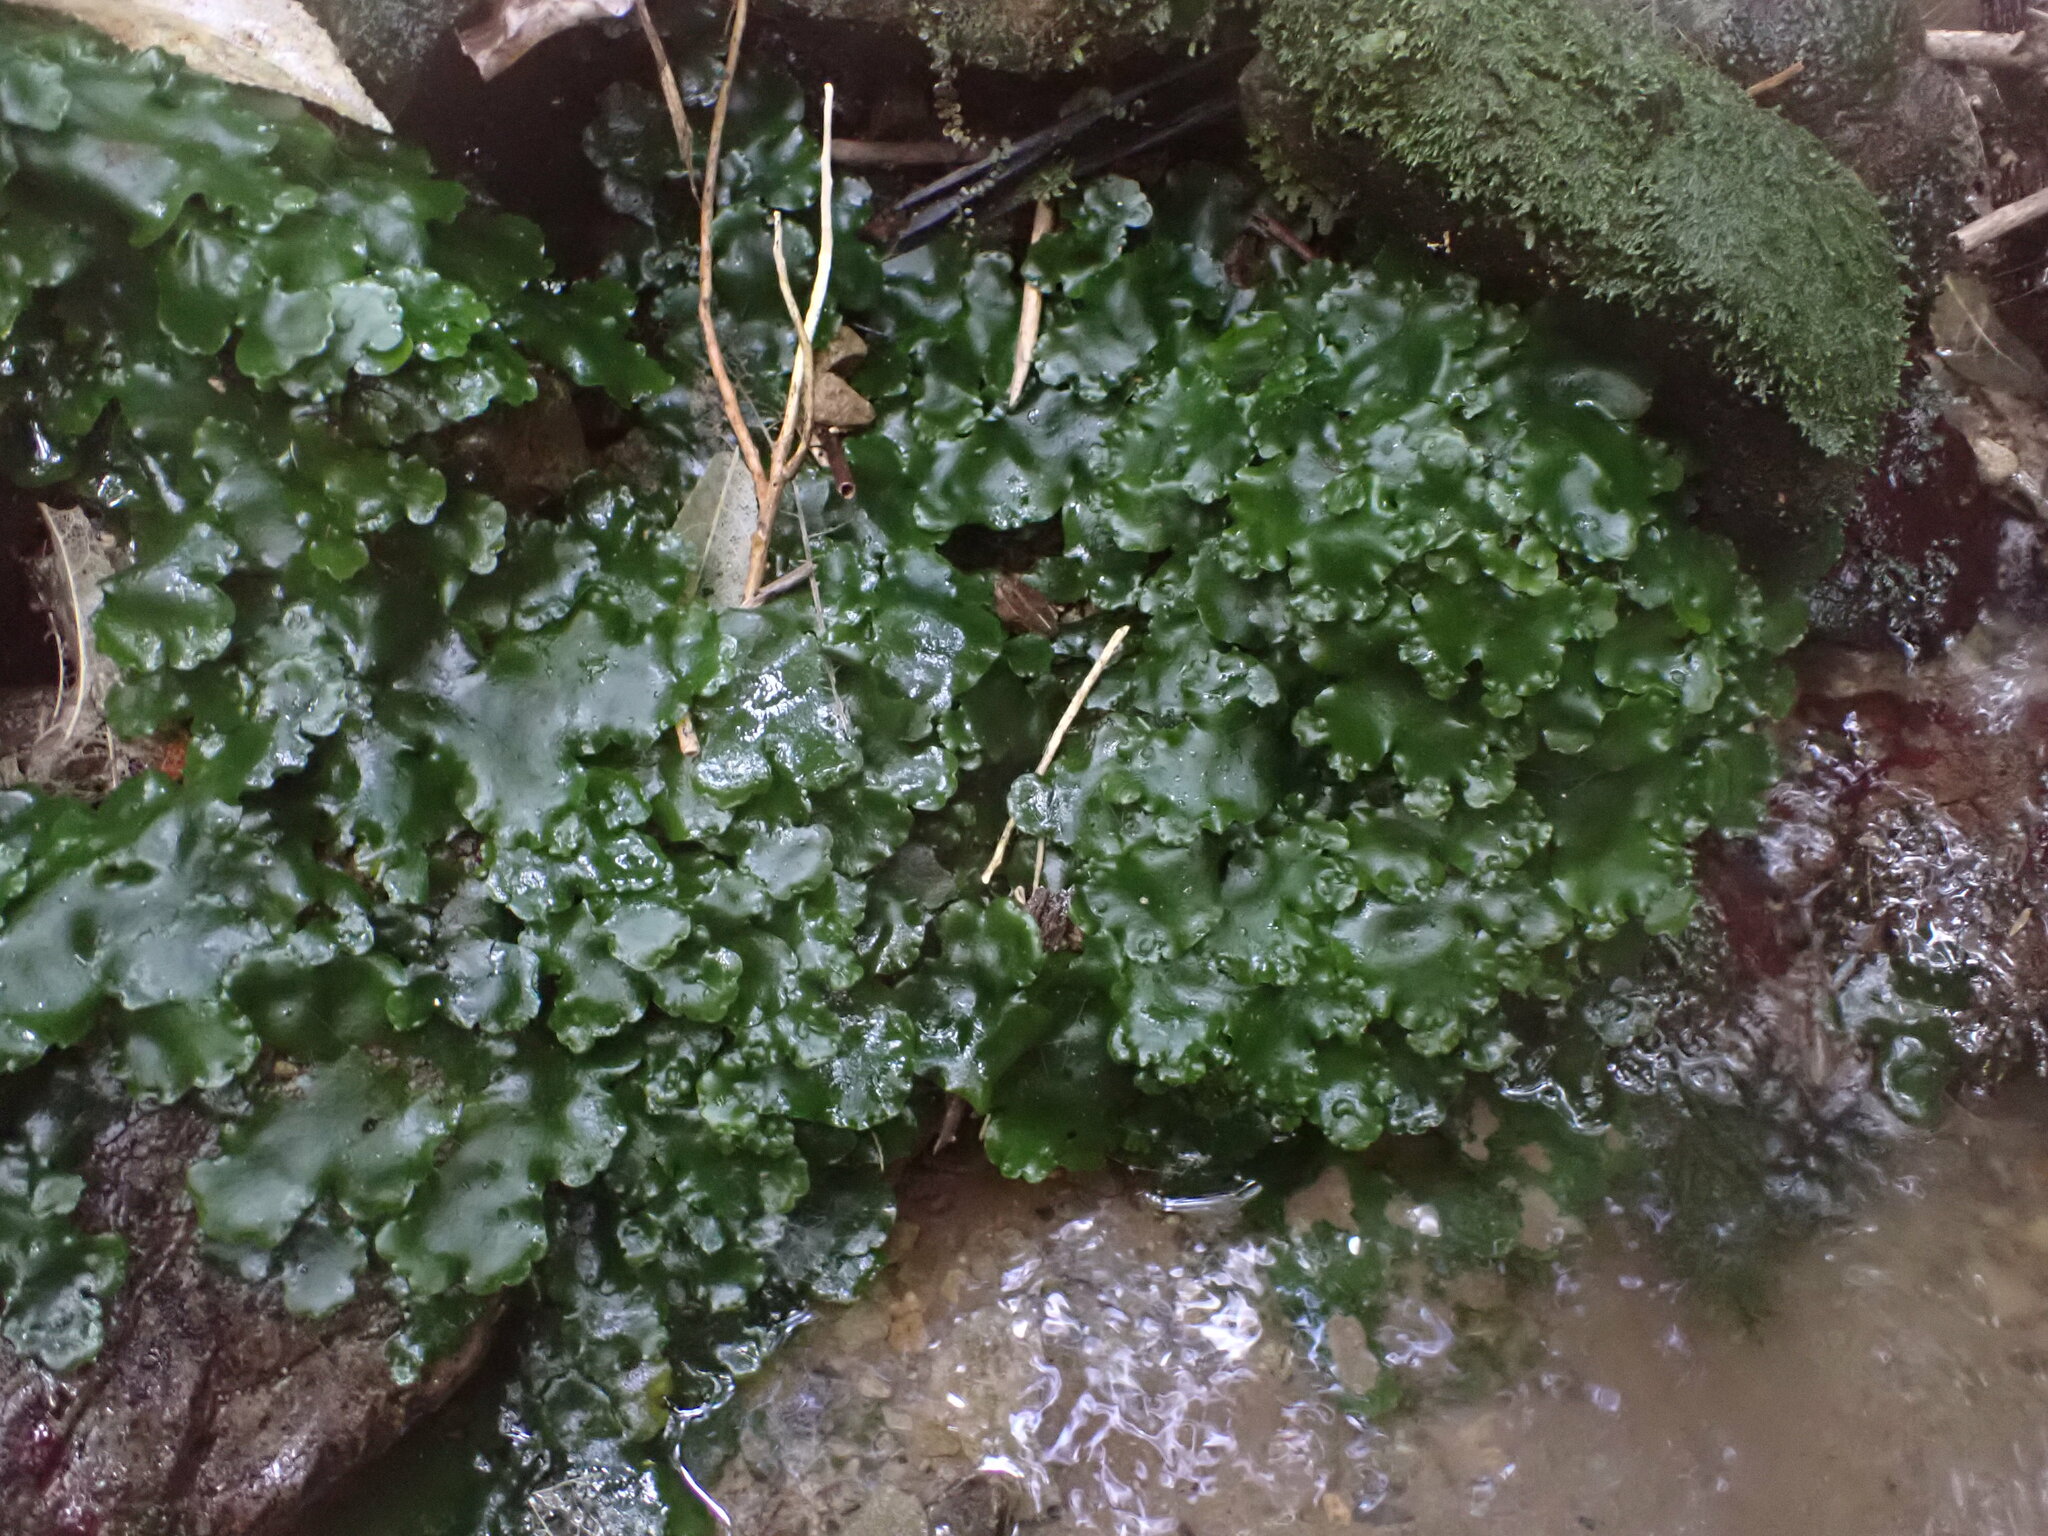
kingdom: Plantae
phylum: Marchantiophyta
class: Marchantiopsida
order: Marchantiales
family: Monocleaceae
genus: Monoclea
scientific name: Monoclea forsteri
